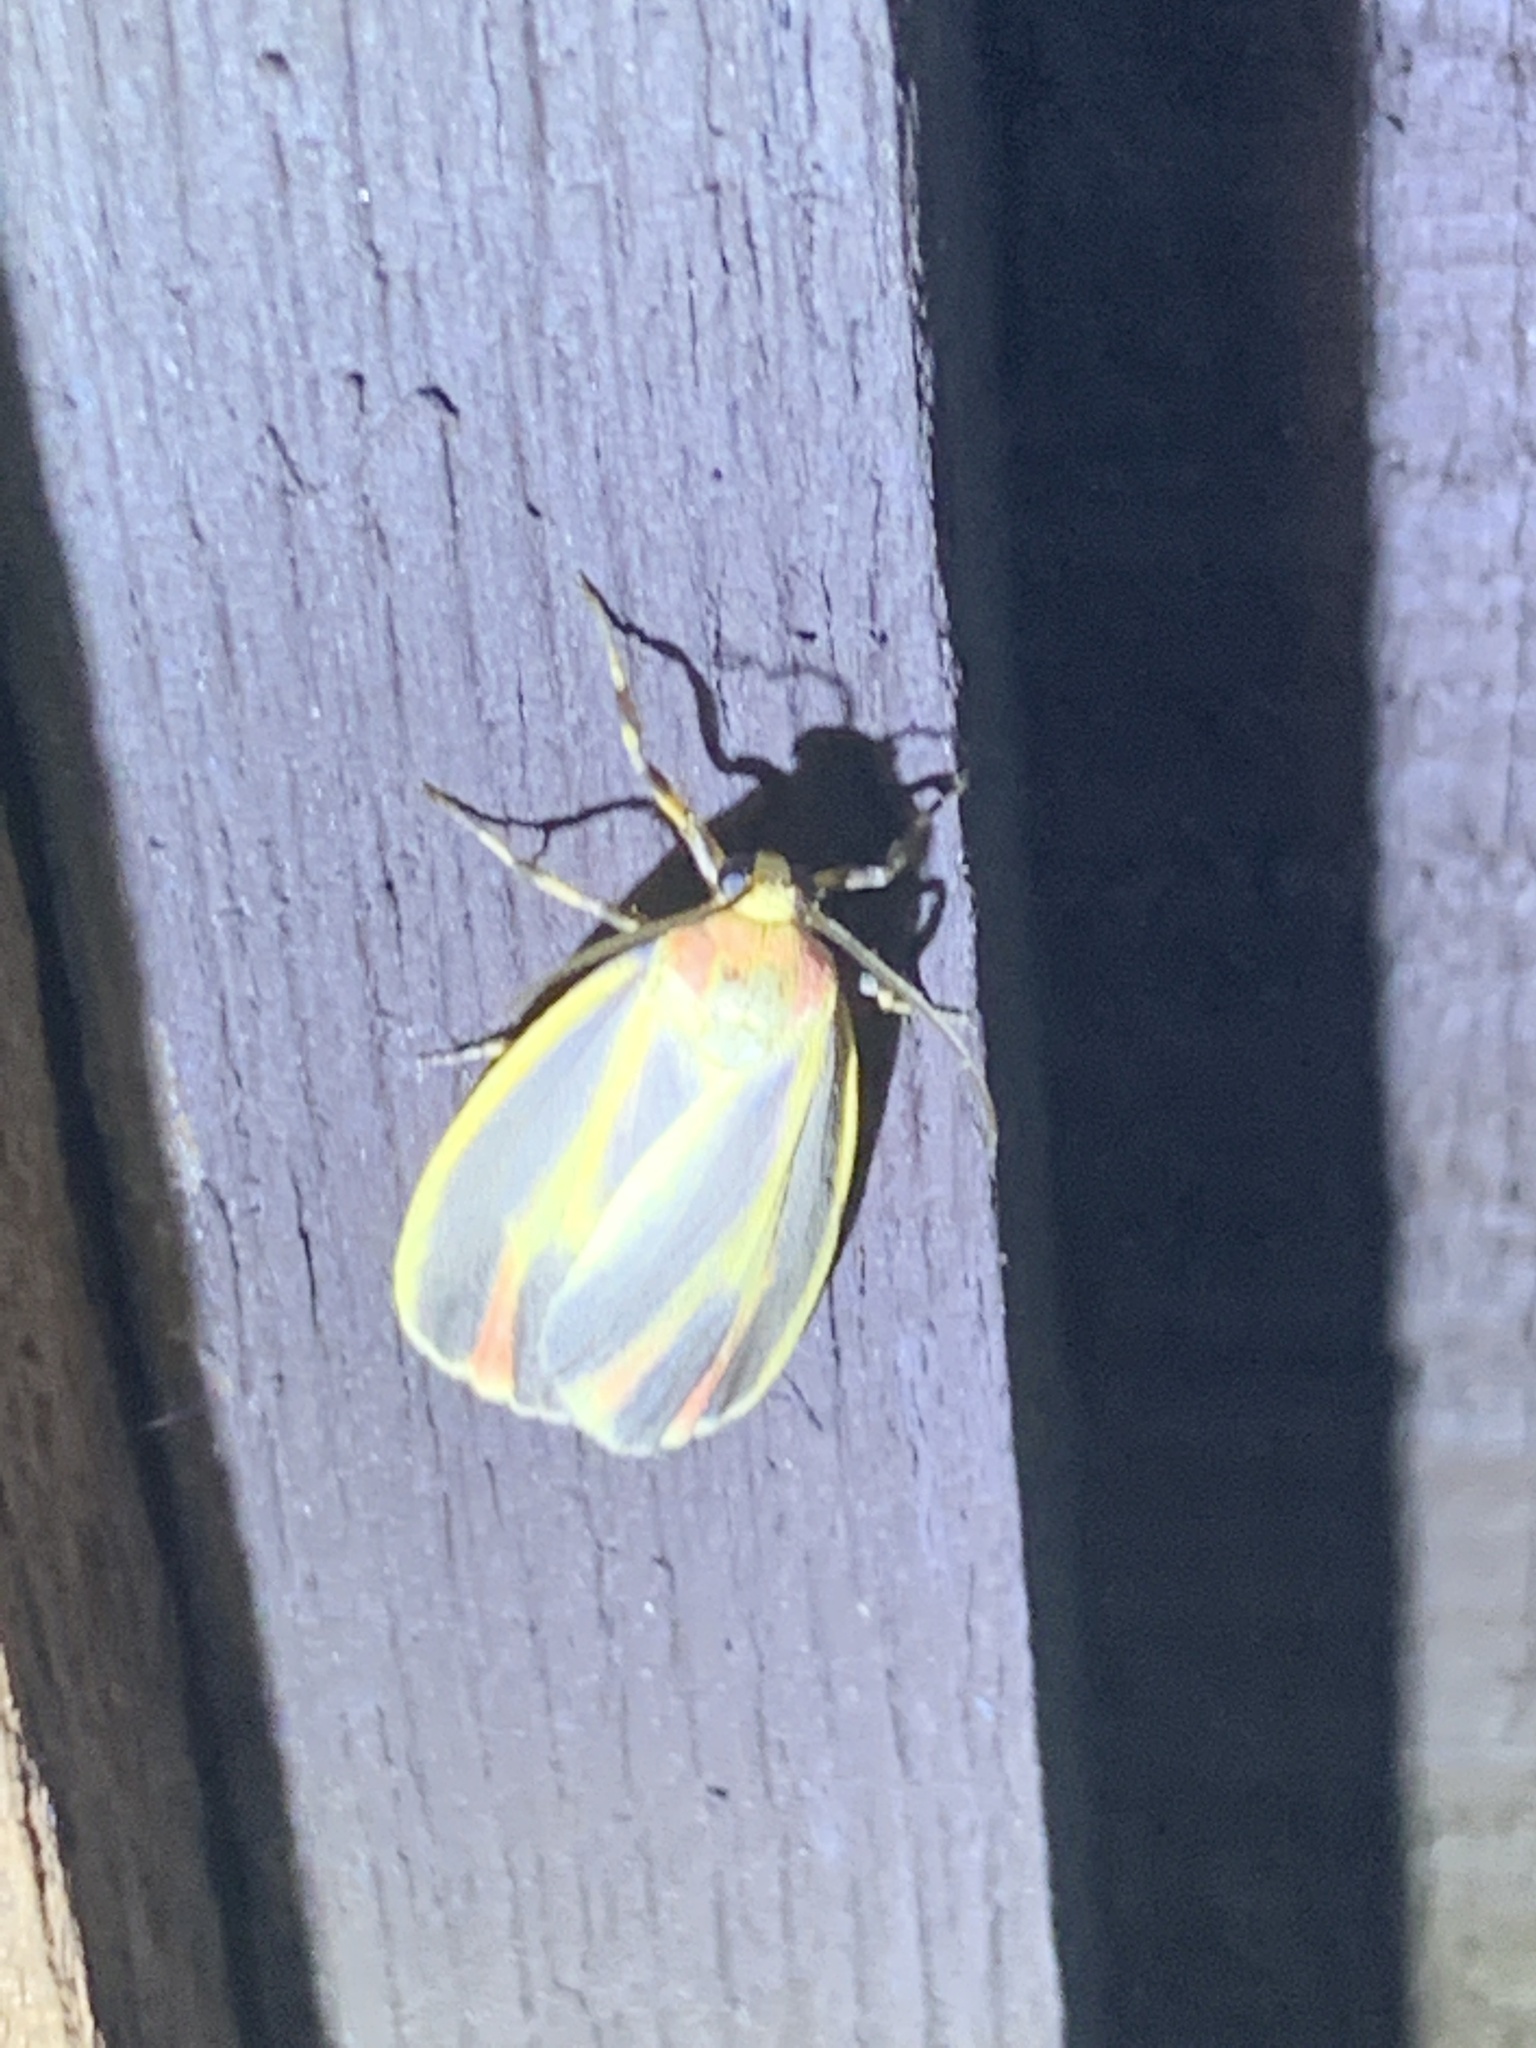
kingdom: Animalia
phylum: Arthropoda
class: Insecta
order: Lepidoptera
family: Erebidae
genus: Hypoprepia
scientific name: Hypoprepia fucosa
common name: Painted lichen moth
